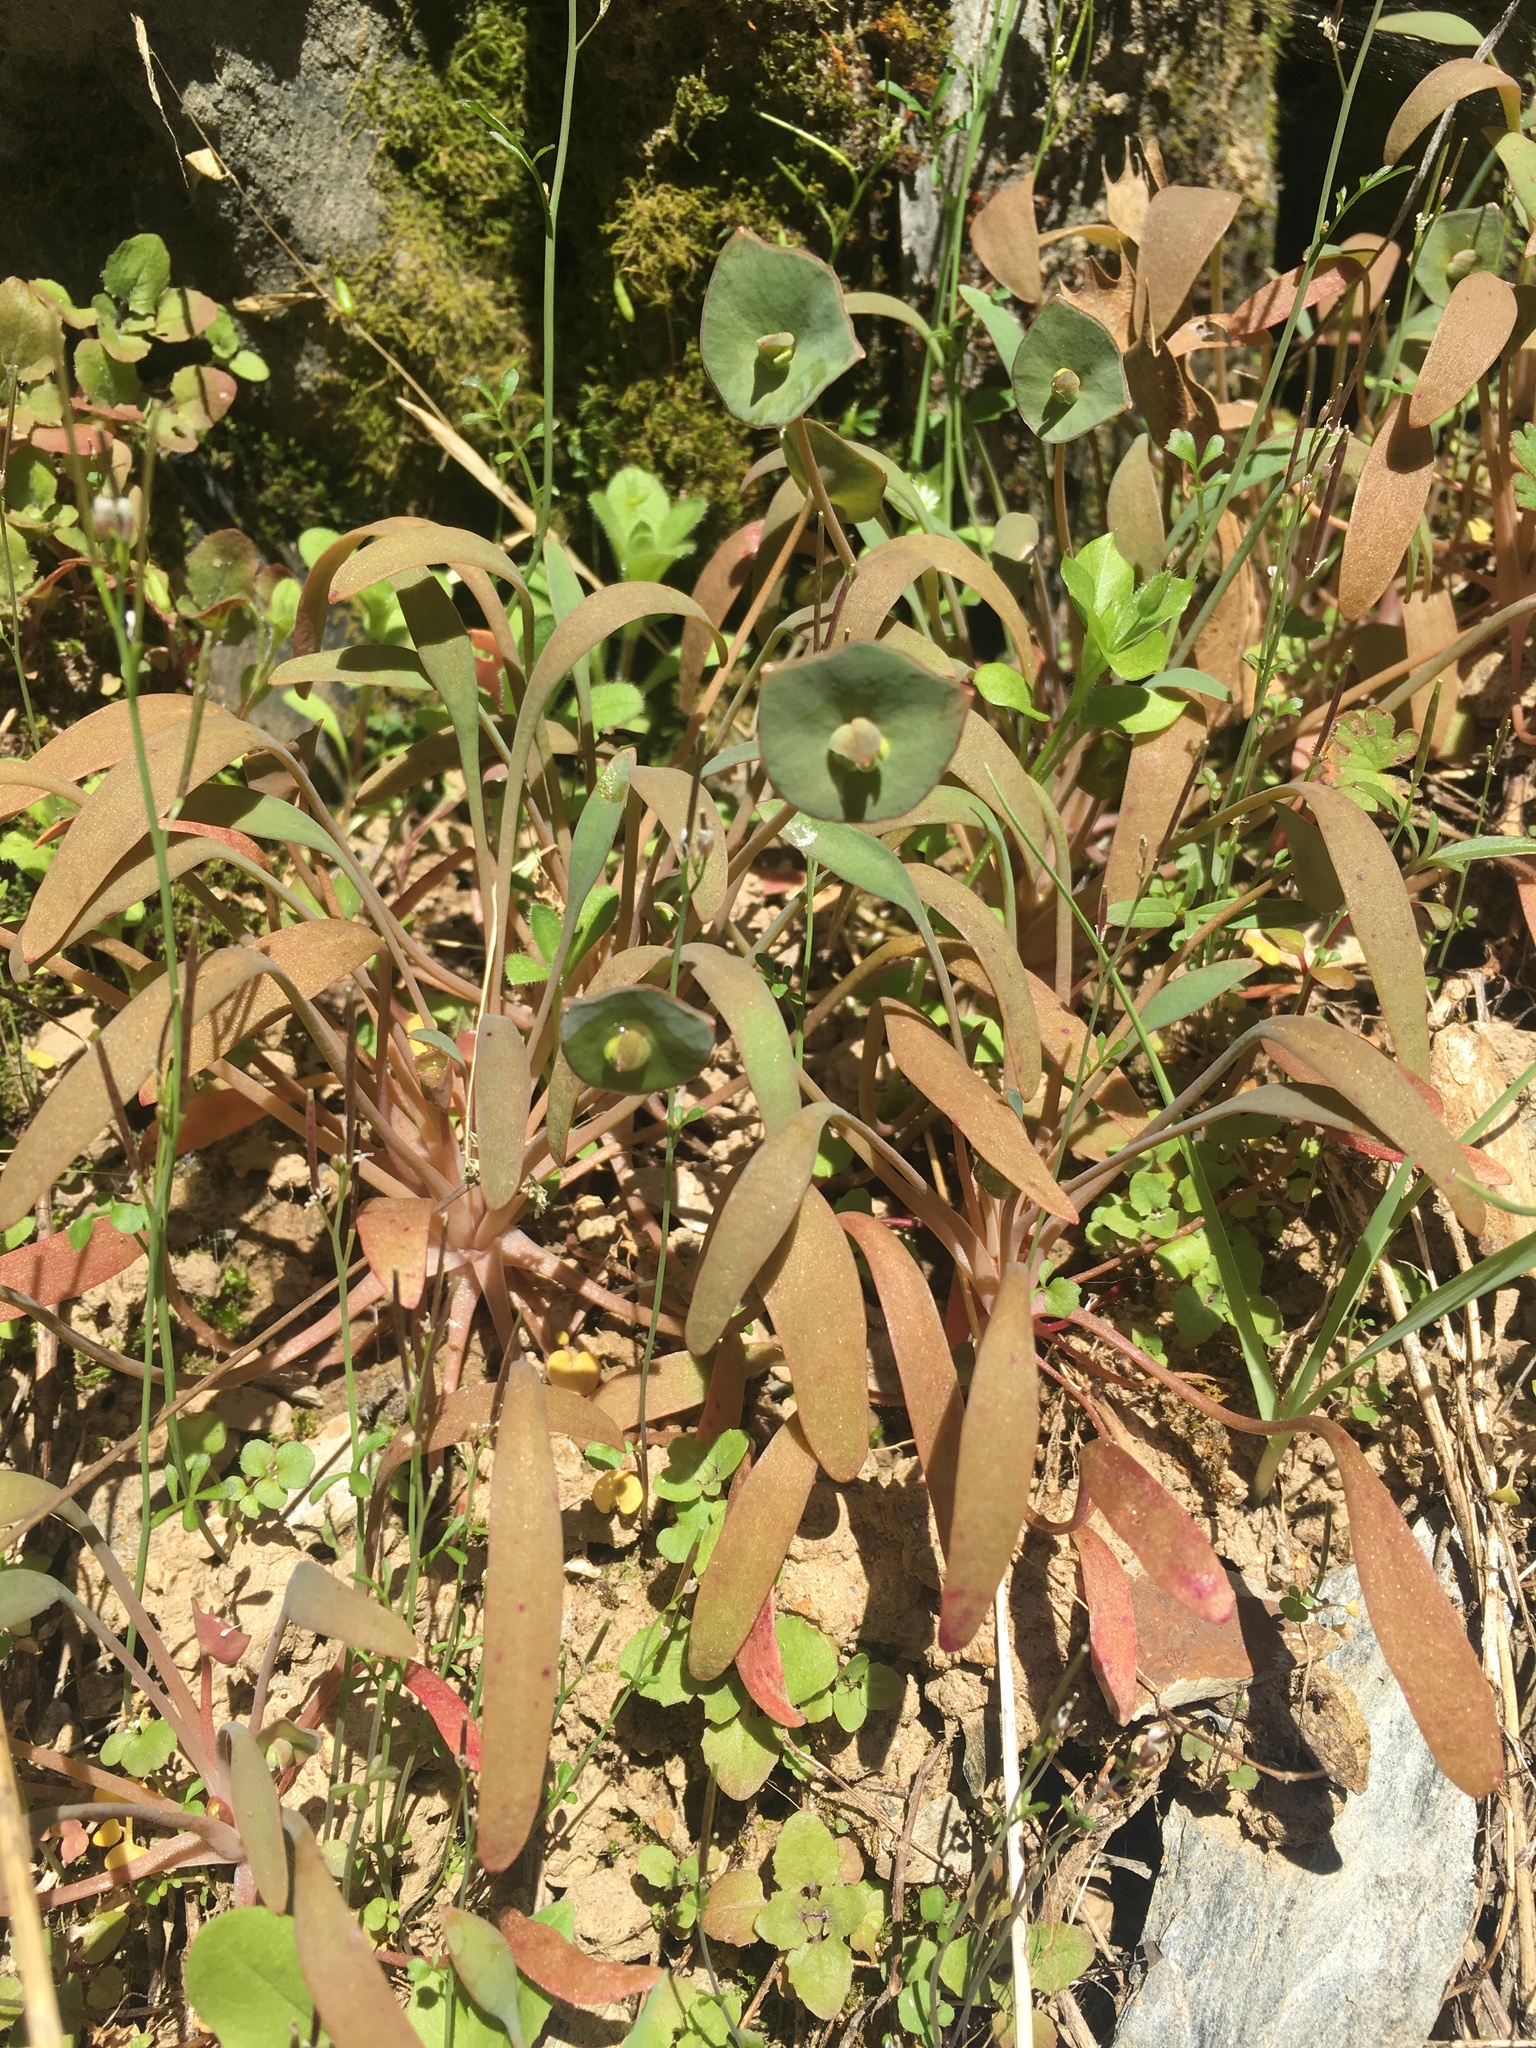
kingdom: Plantae
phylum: Tracheophyta
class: Magnoliopsida
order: Caryophyllales
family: Montiaceae
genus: Claytonia
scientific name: Claytonia parviflora
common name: Indian-lettuce
